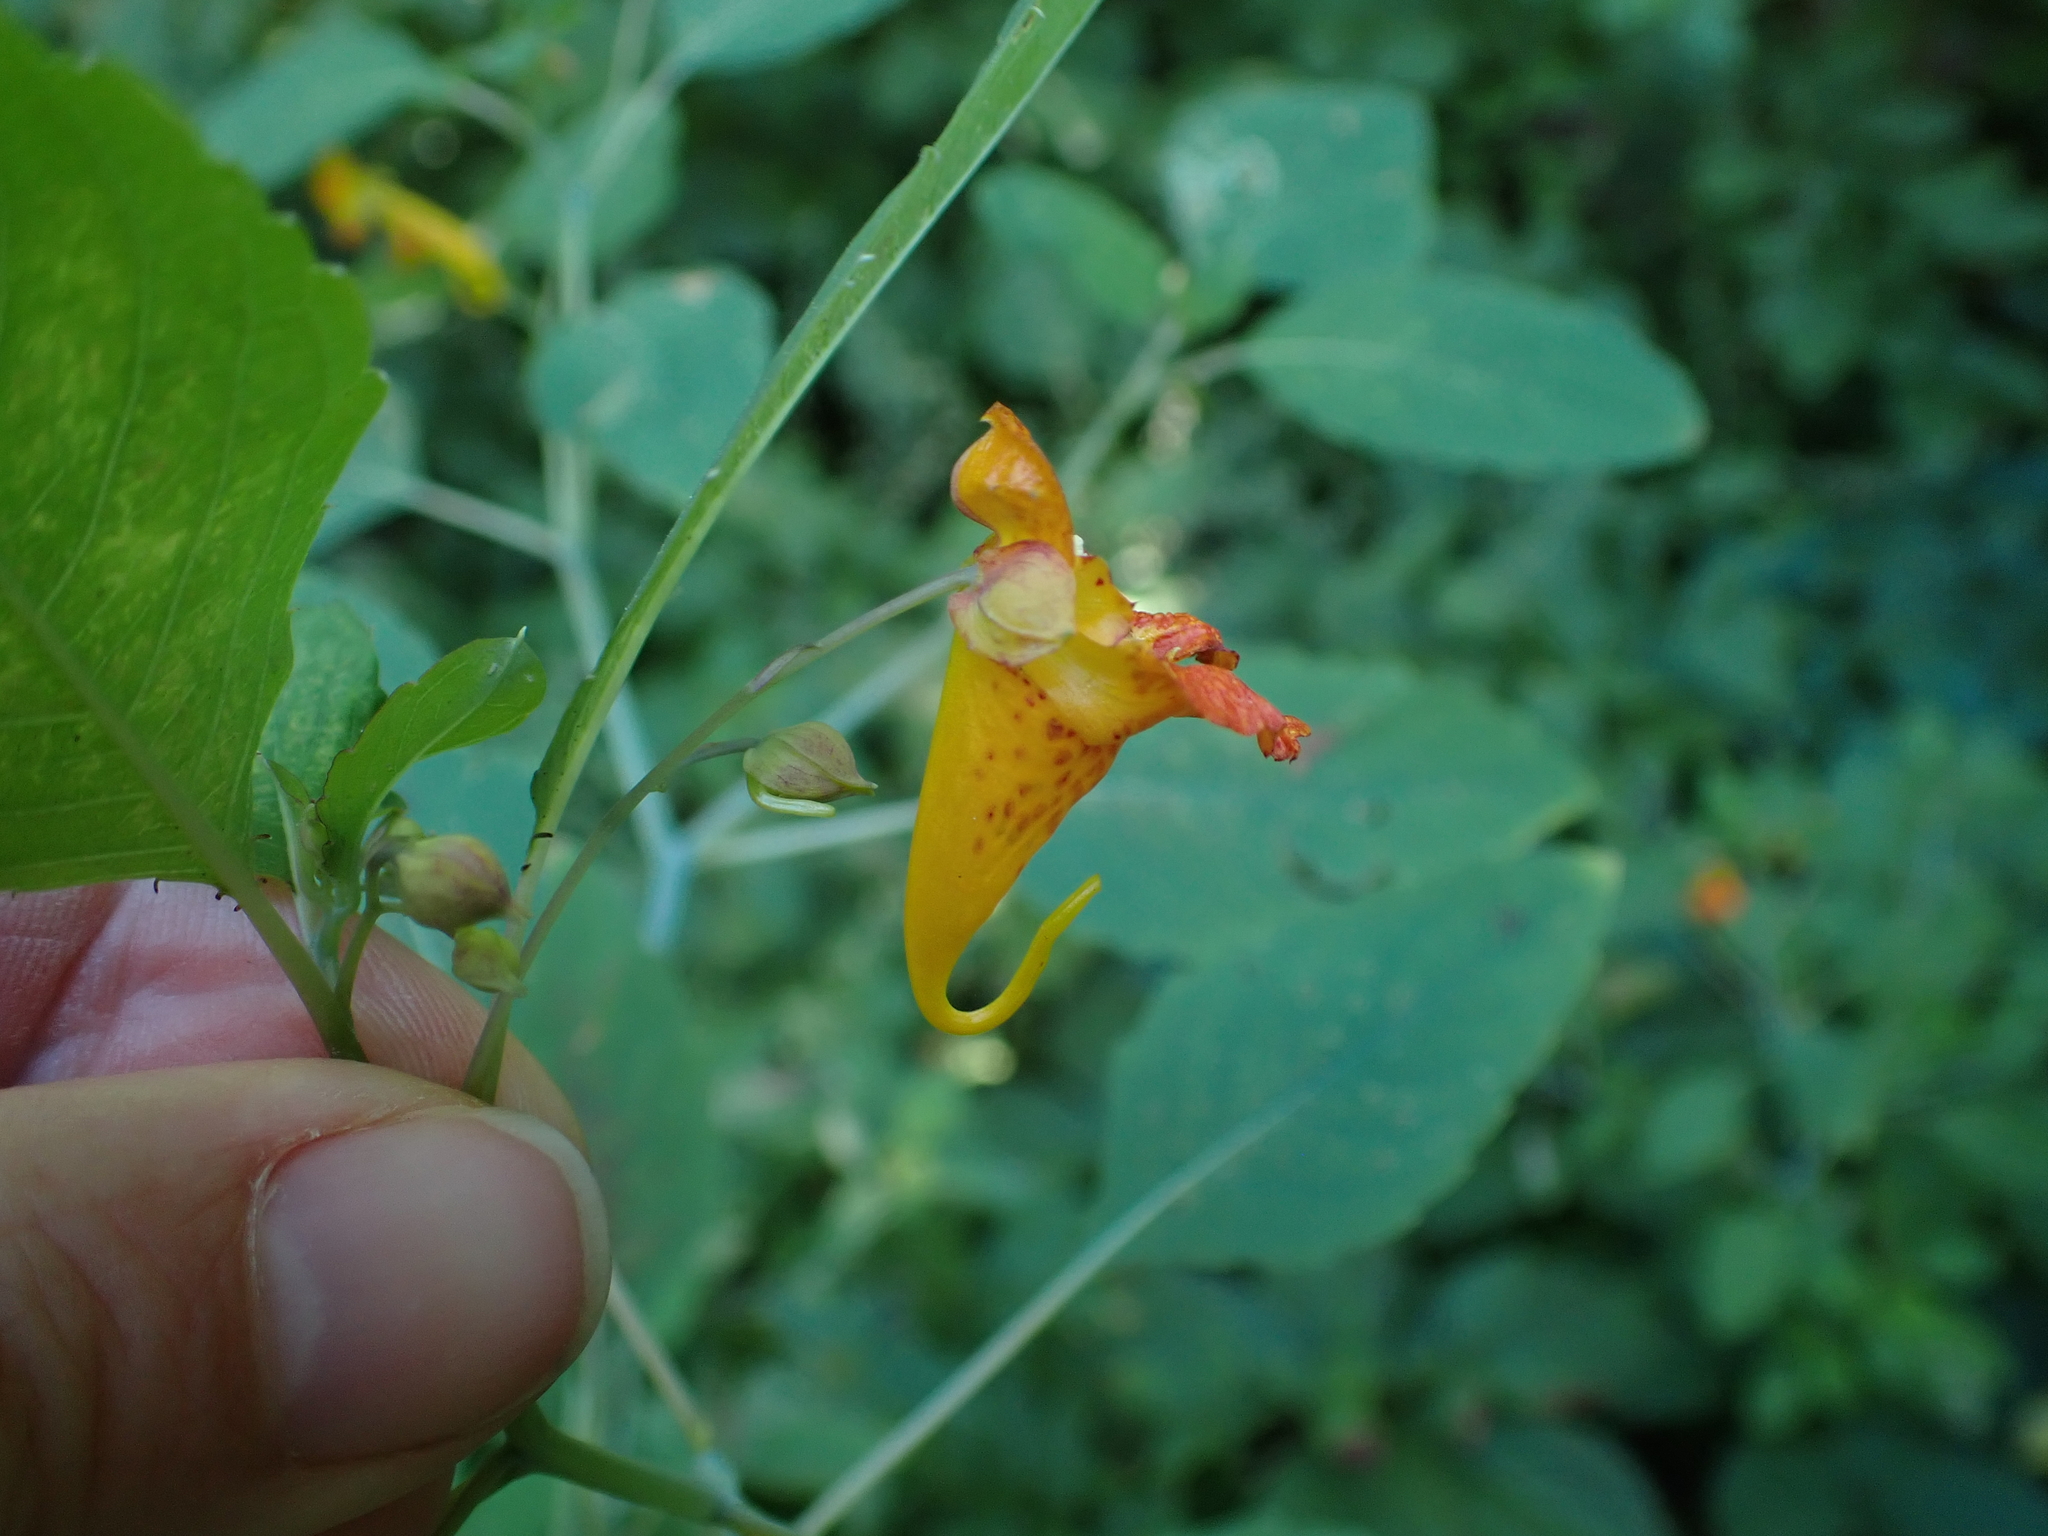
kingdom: Plantae
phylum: Tracheophyta
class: Magnoliopsida
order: Ericales
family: Balsaminaceae
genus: Impatiens
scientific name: Impatiens capensis
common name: Orange balsam
